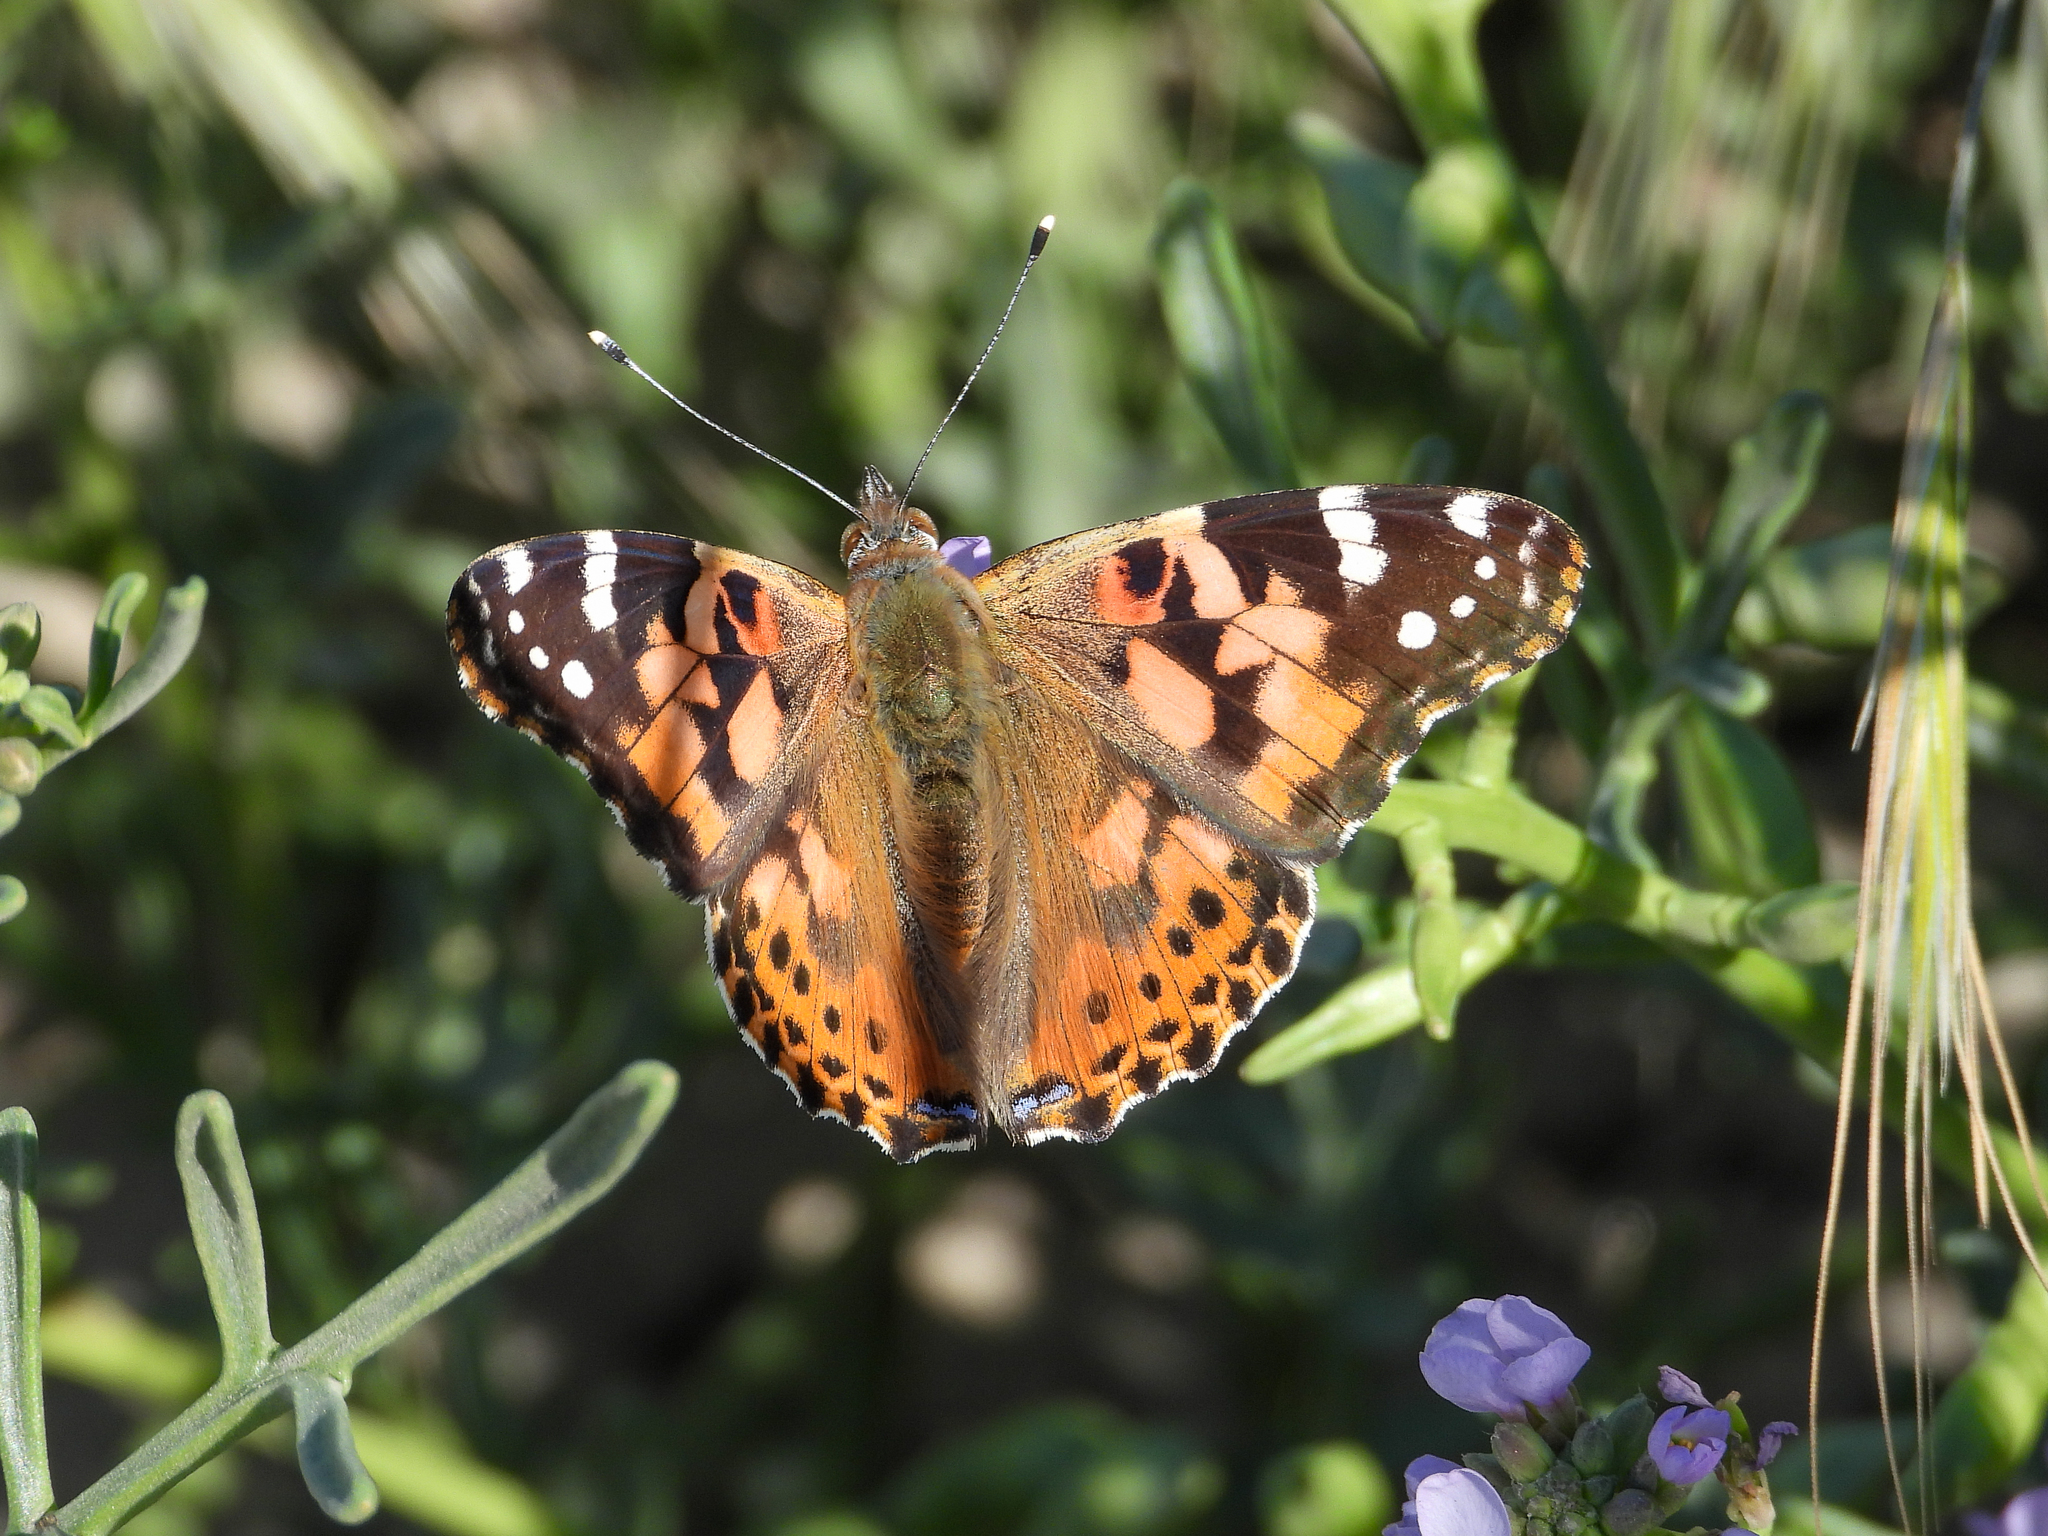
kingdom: Animalia
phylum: Arthropoda
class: Insecta
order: Lepidoptera
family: Nymphalidae
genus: Vanessa
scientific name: Vanessa cardui
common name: Painted lady
